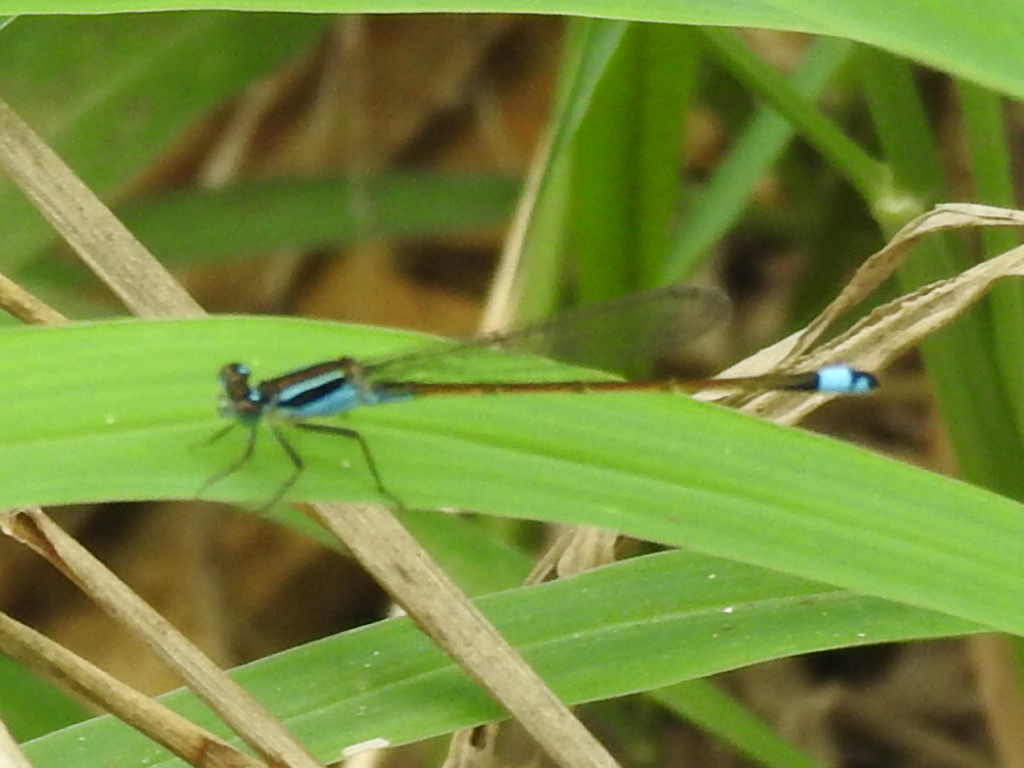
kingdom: Animalia
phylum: Arthropoda
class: Insecta
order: Odonata
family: Coenagrionidae
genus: Ischnura
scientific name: Ischnura ramburii
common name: Rambur's forktail
